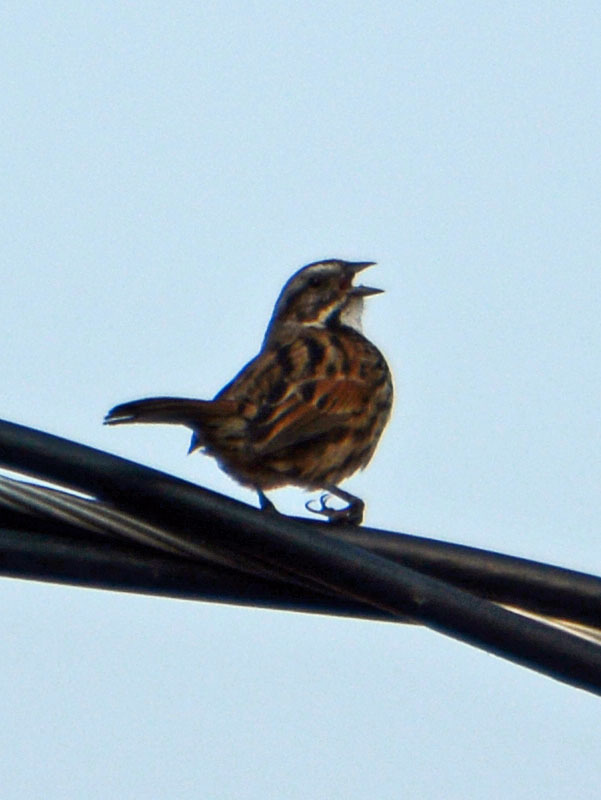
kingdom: Animalia
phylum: Chordata
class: Aves
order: Passeriformes
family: Passerellidae
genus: Melospiza
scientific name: Melospiza melodia
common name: Song sparrow
